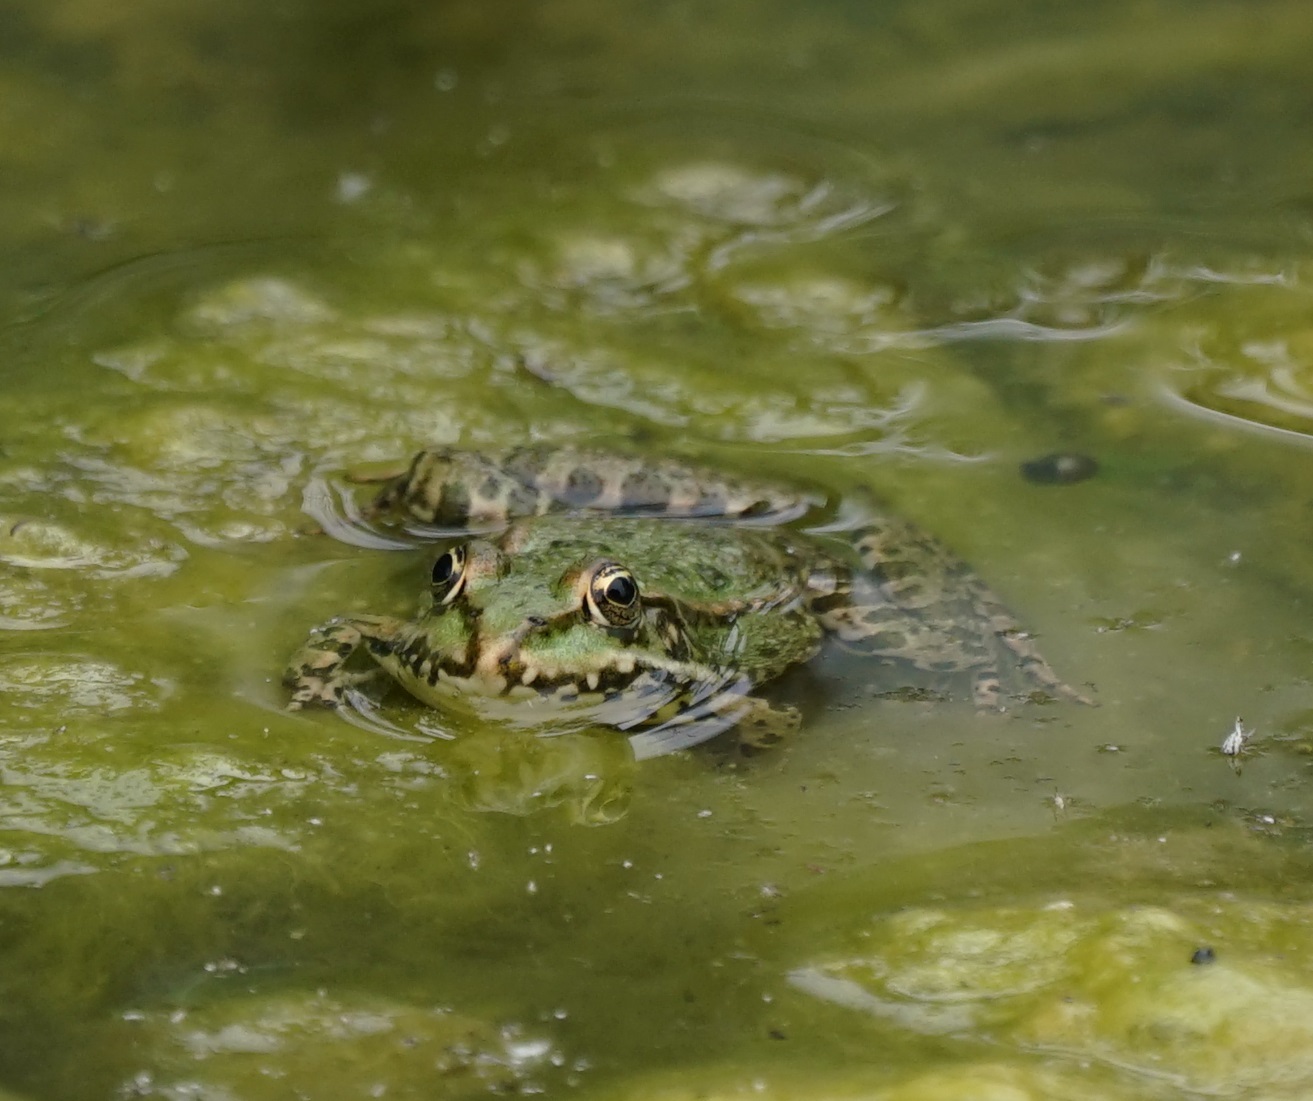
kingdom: Animalia
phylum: Chordata
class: Amphibia
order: Anura
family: Ranidae
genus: Pelophylax
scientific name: Pelophylax
